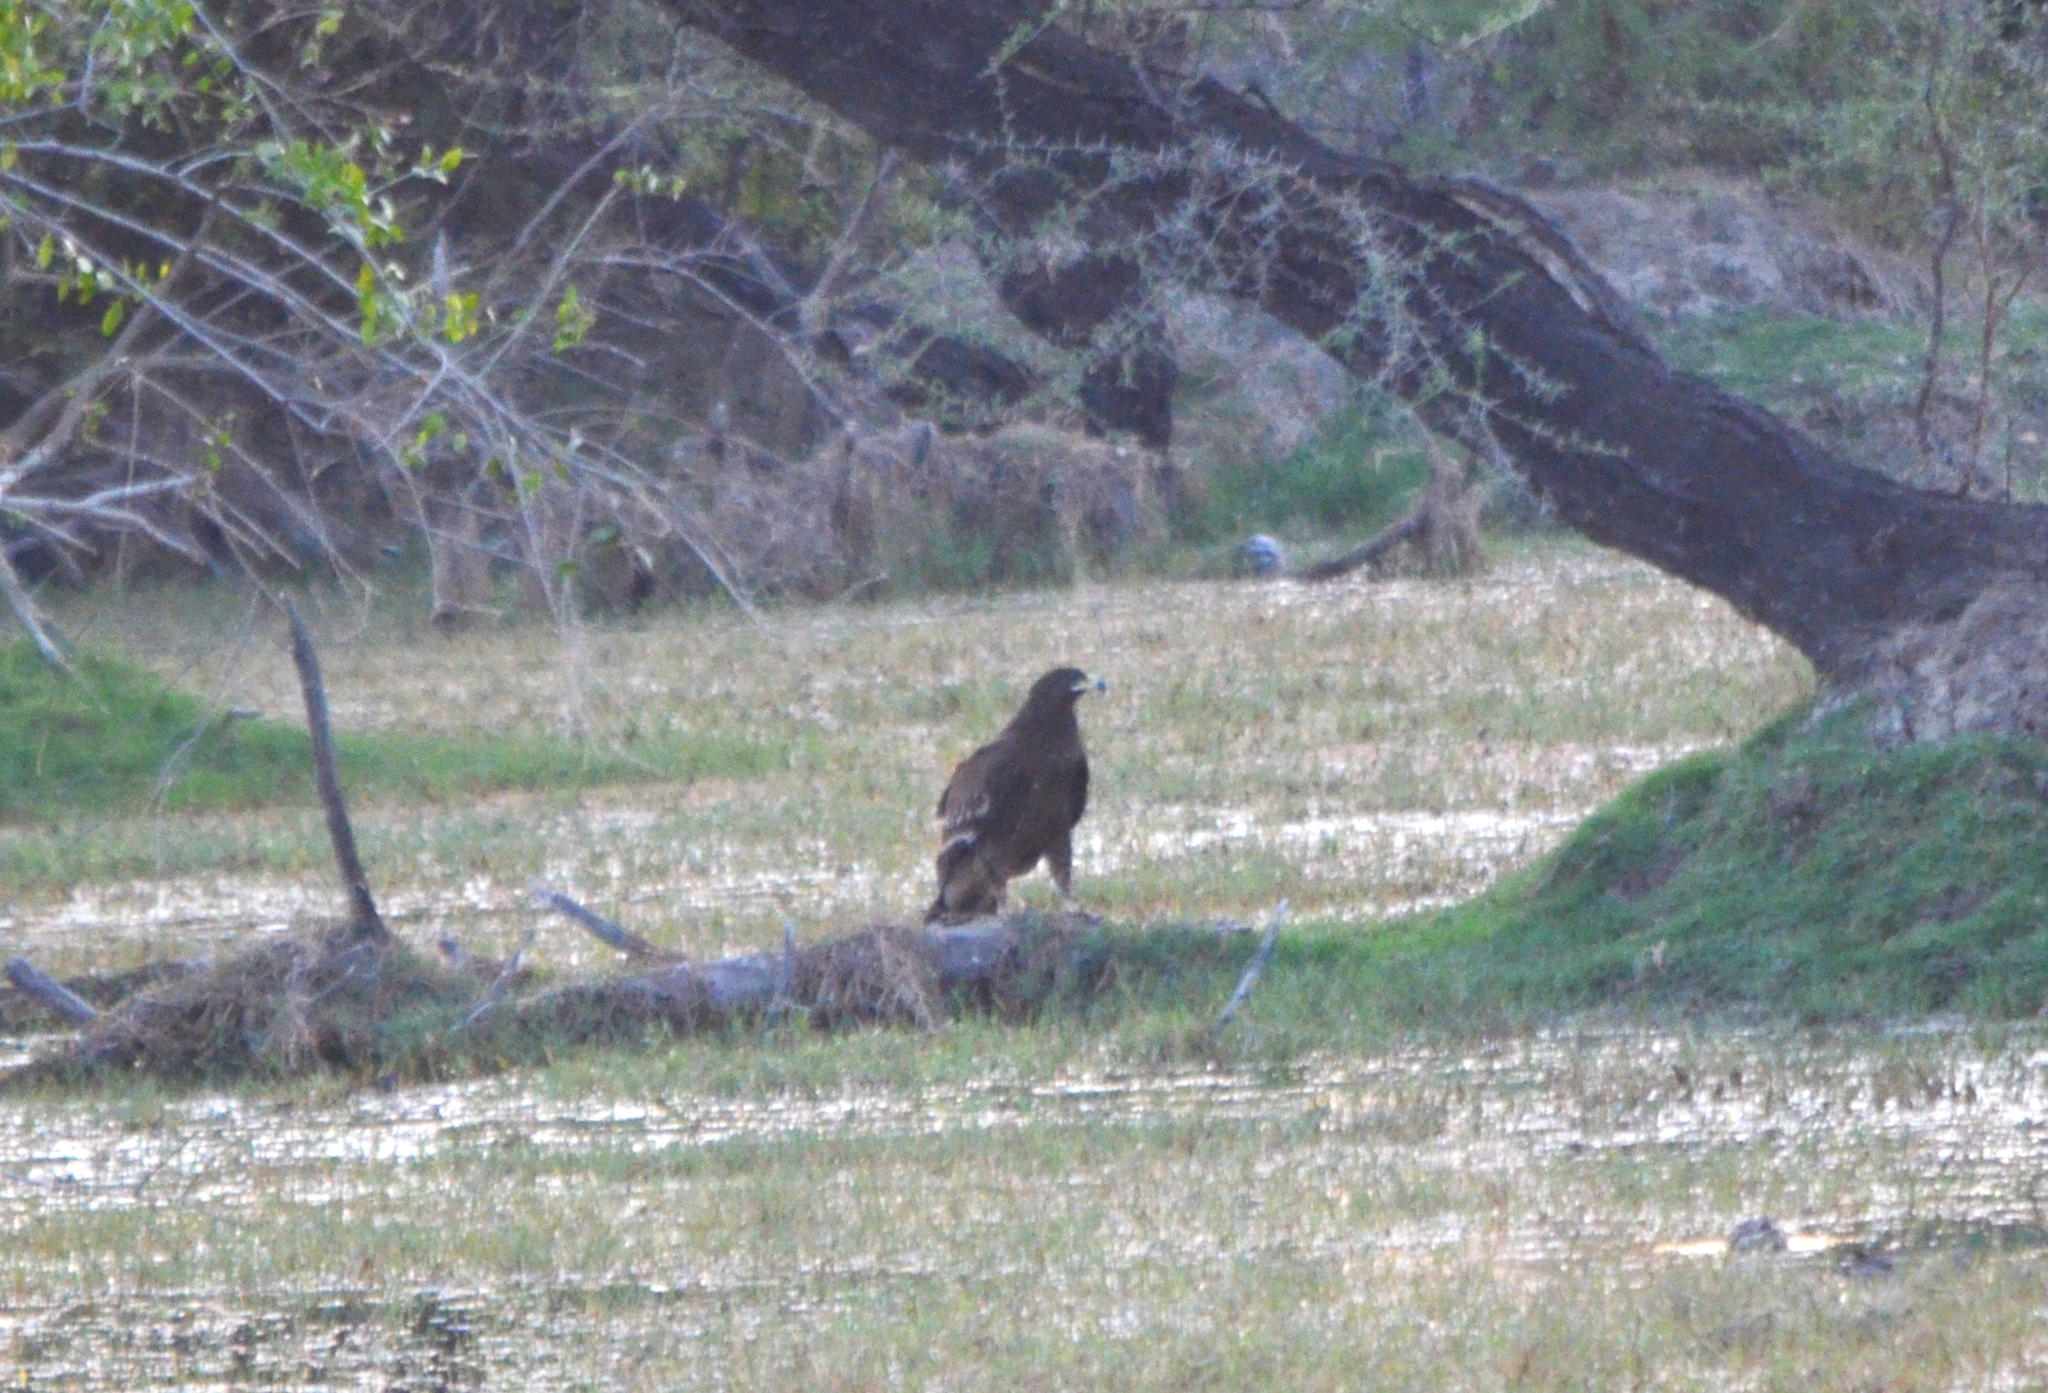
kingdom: Animalia
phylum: Chordata
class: Aves
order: Accipitriformes
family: Accipitridae
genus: Aquila
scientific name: Aquila clanga
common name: Greater spotted eagle
